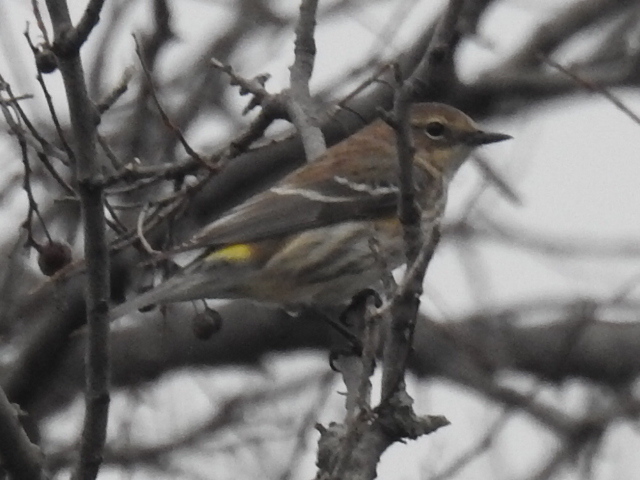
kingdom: Animalia
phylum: Chordata
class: Aves
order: Passeriformes
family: Parulidae
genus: Setophaga
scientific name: Setophaga coronata
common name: Myrtle warbler
